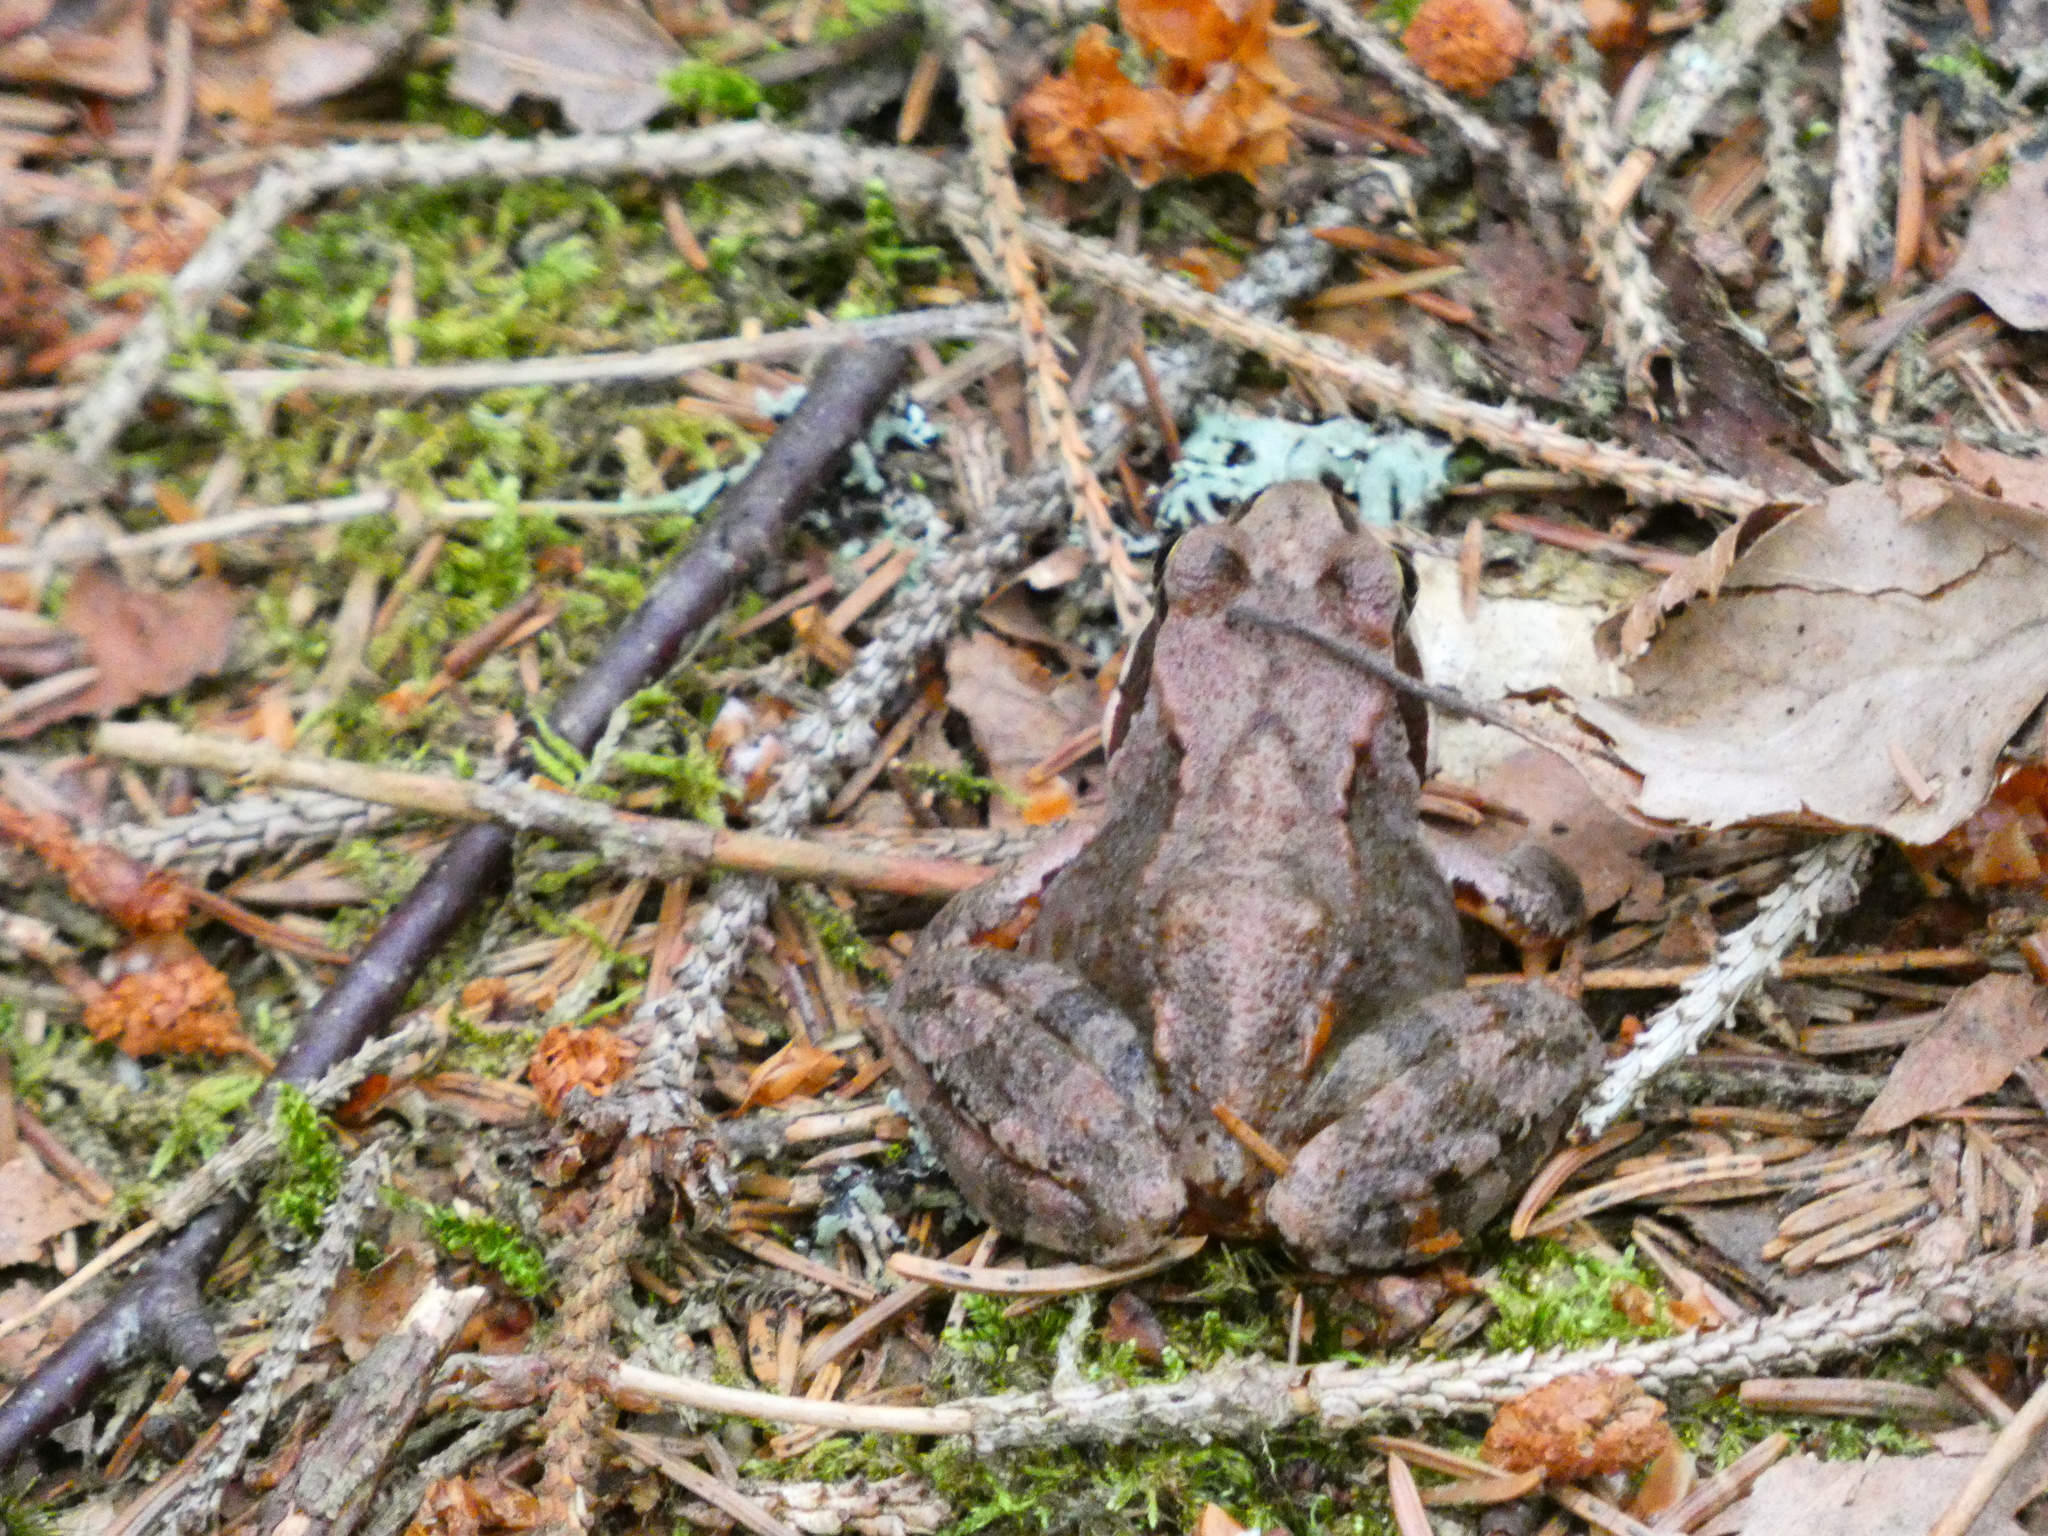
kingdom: Animalia
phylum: Chordata
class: Amphibia
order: Anura
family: Ranidae
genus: Rana
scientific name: Rana temporaria
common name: Common frog
